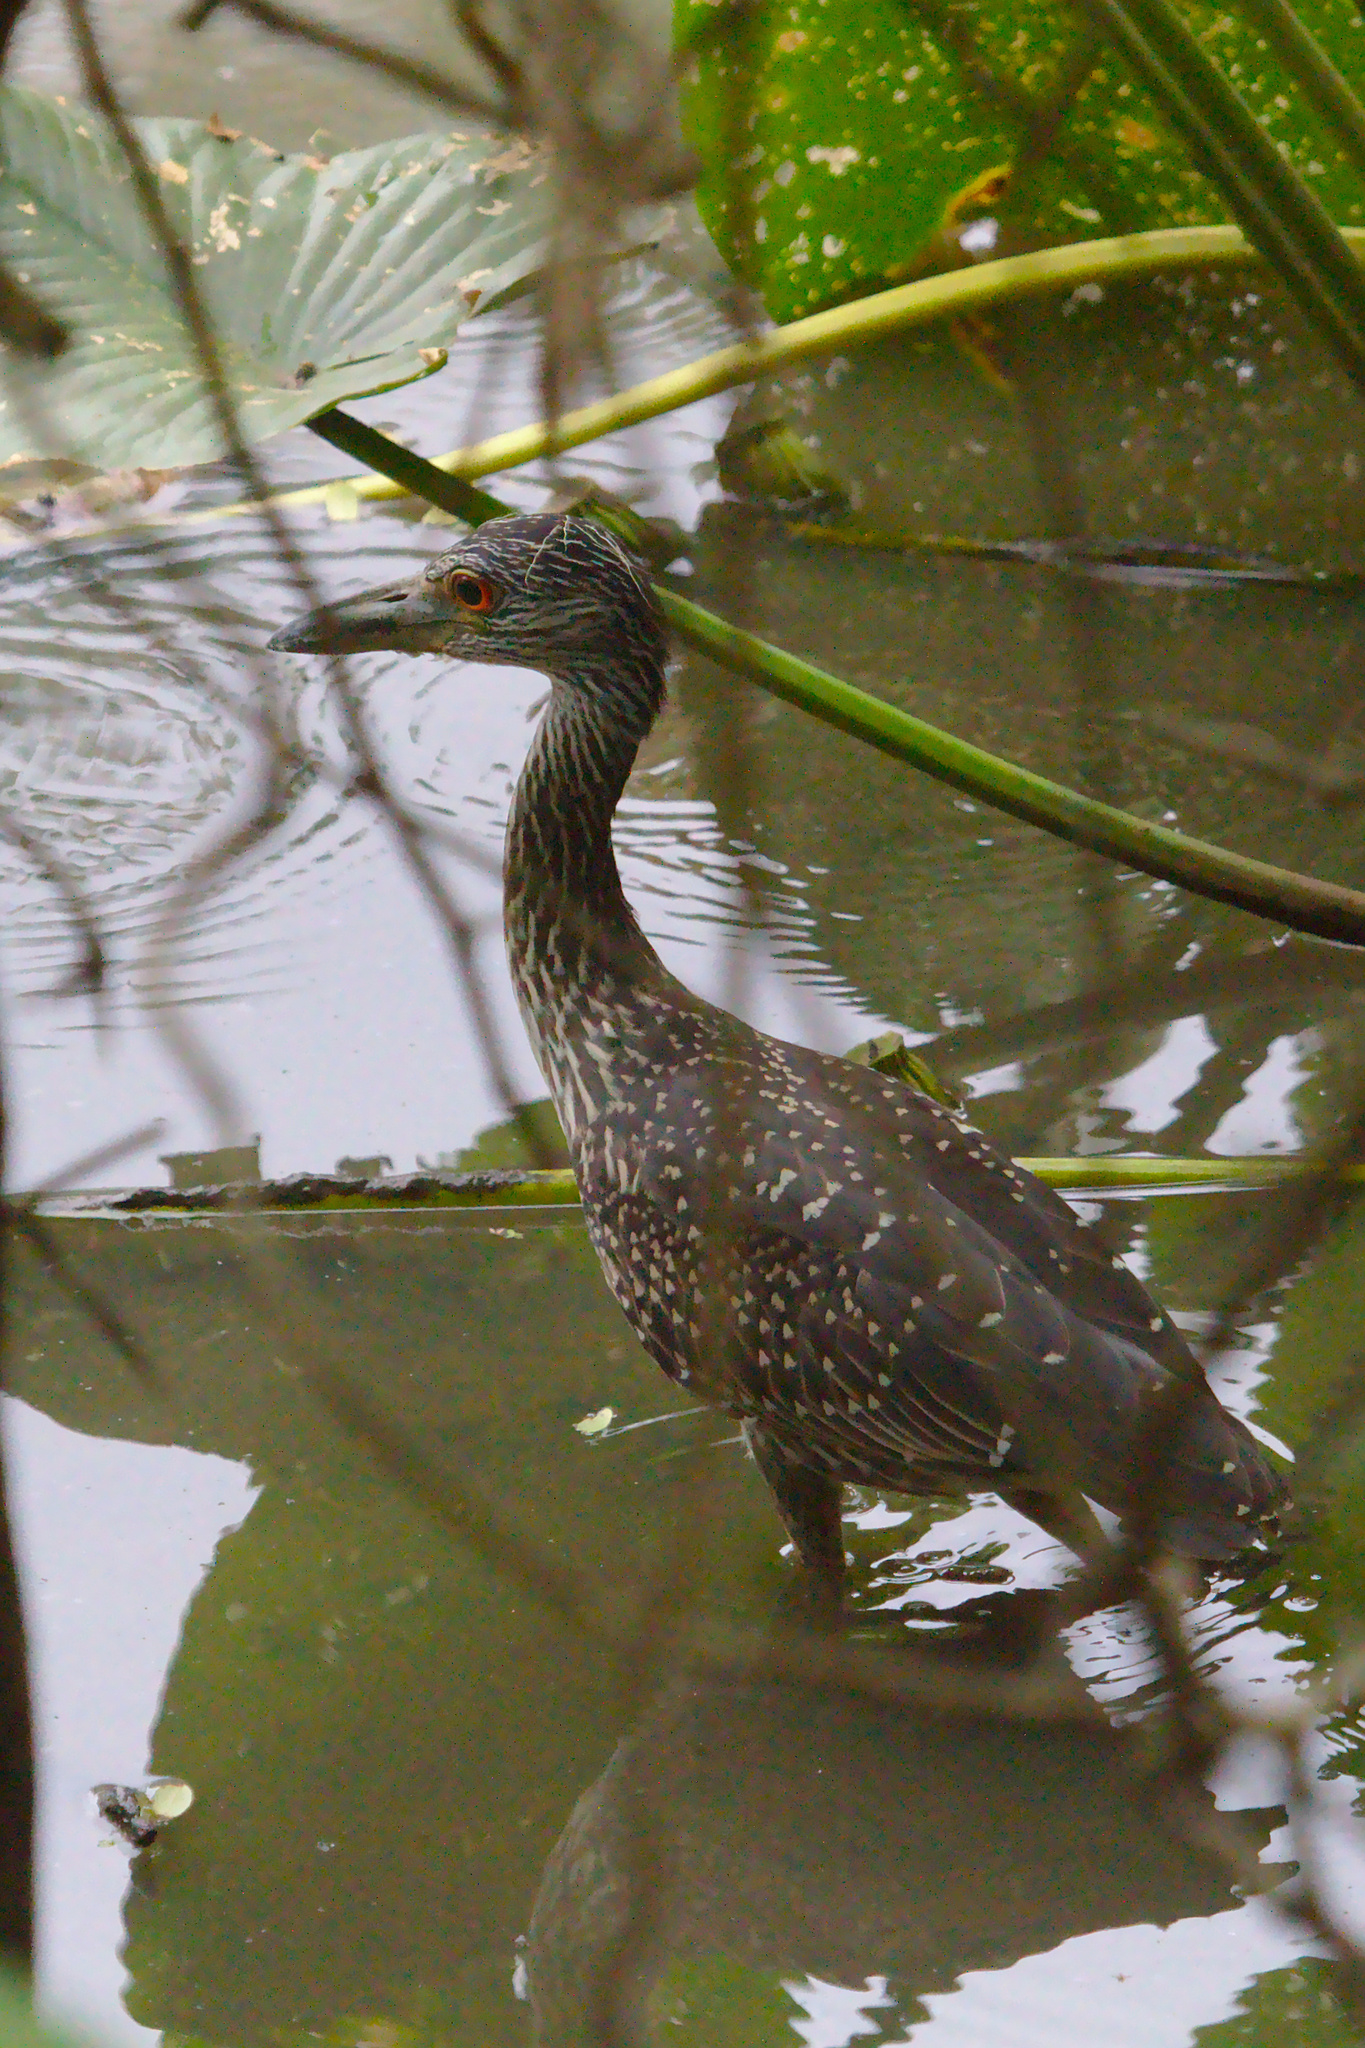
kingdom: Animalia
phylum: Chordata
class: Aves
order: Pelecaniformes
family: Ardeidae
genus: Nyctanassa
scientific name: Nyctanassa violacea
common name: Yellow-crowned night heron
